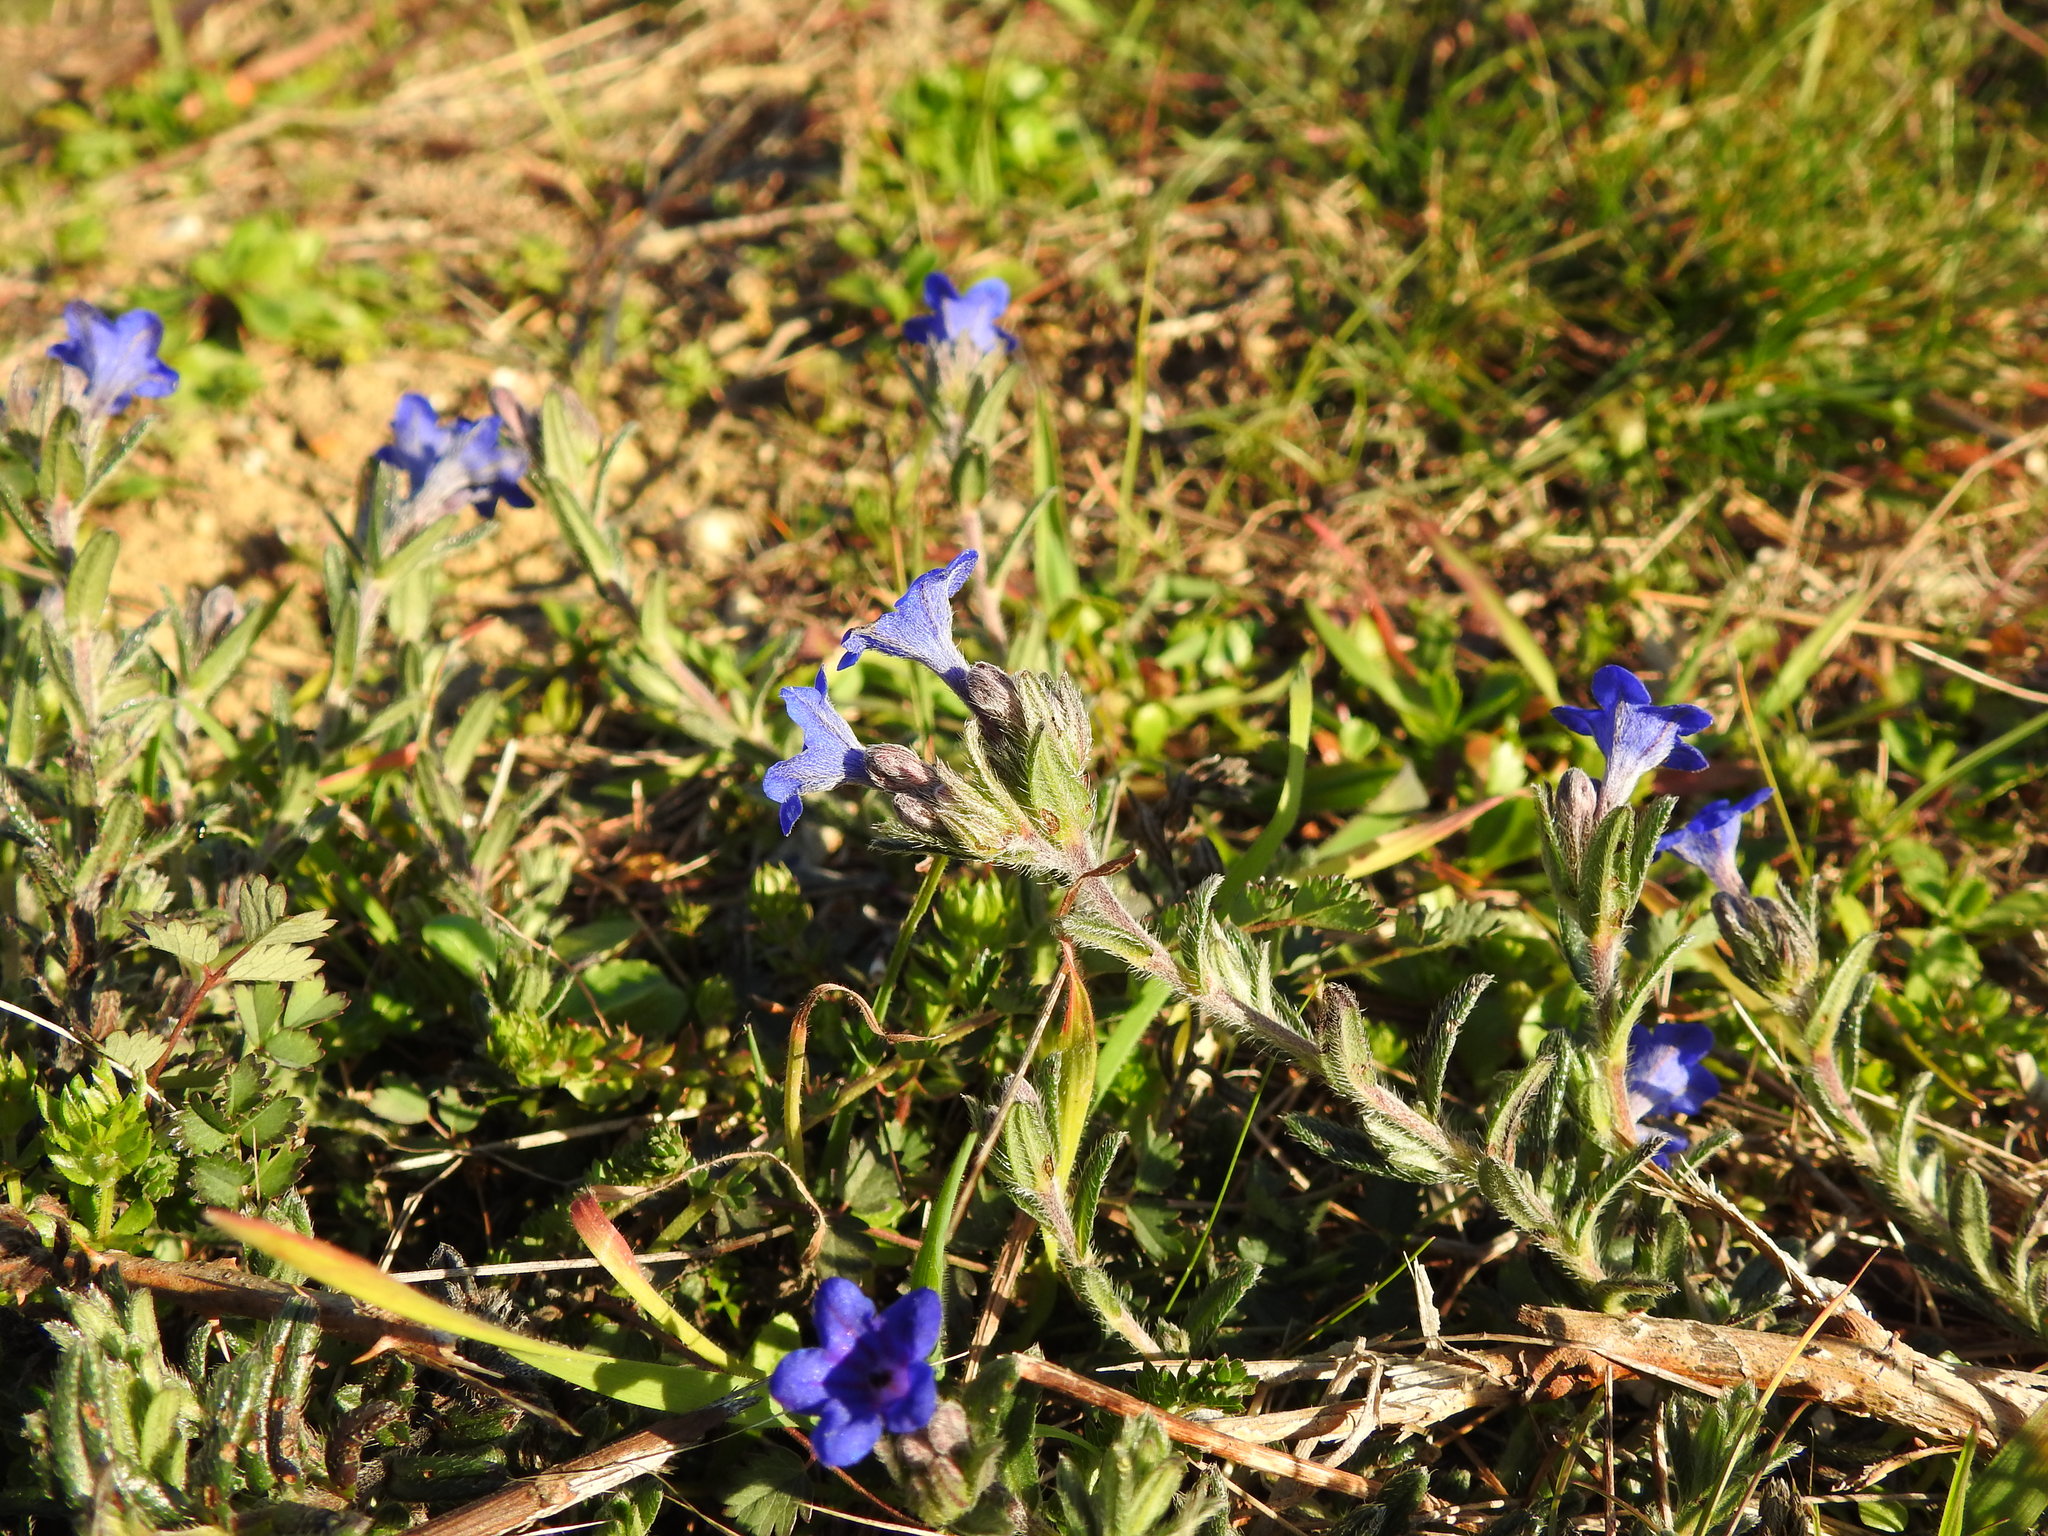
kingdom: Plantae
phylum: Tracheophyta
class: Magnoliopsida
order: Boraginales
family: Boraginaceae
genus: Glandora
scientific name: Glandora prostrata
